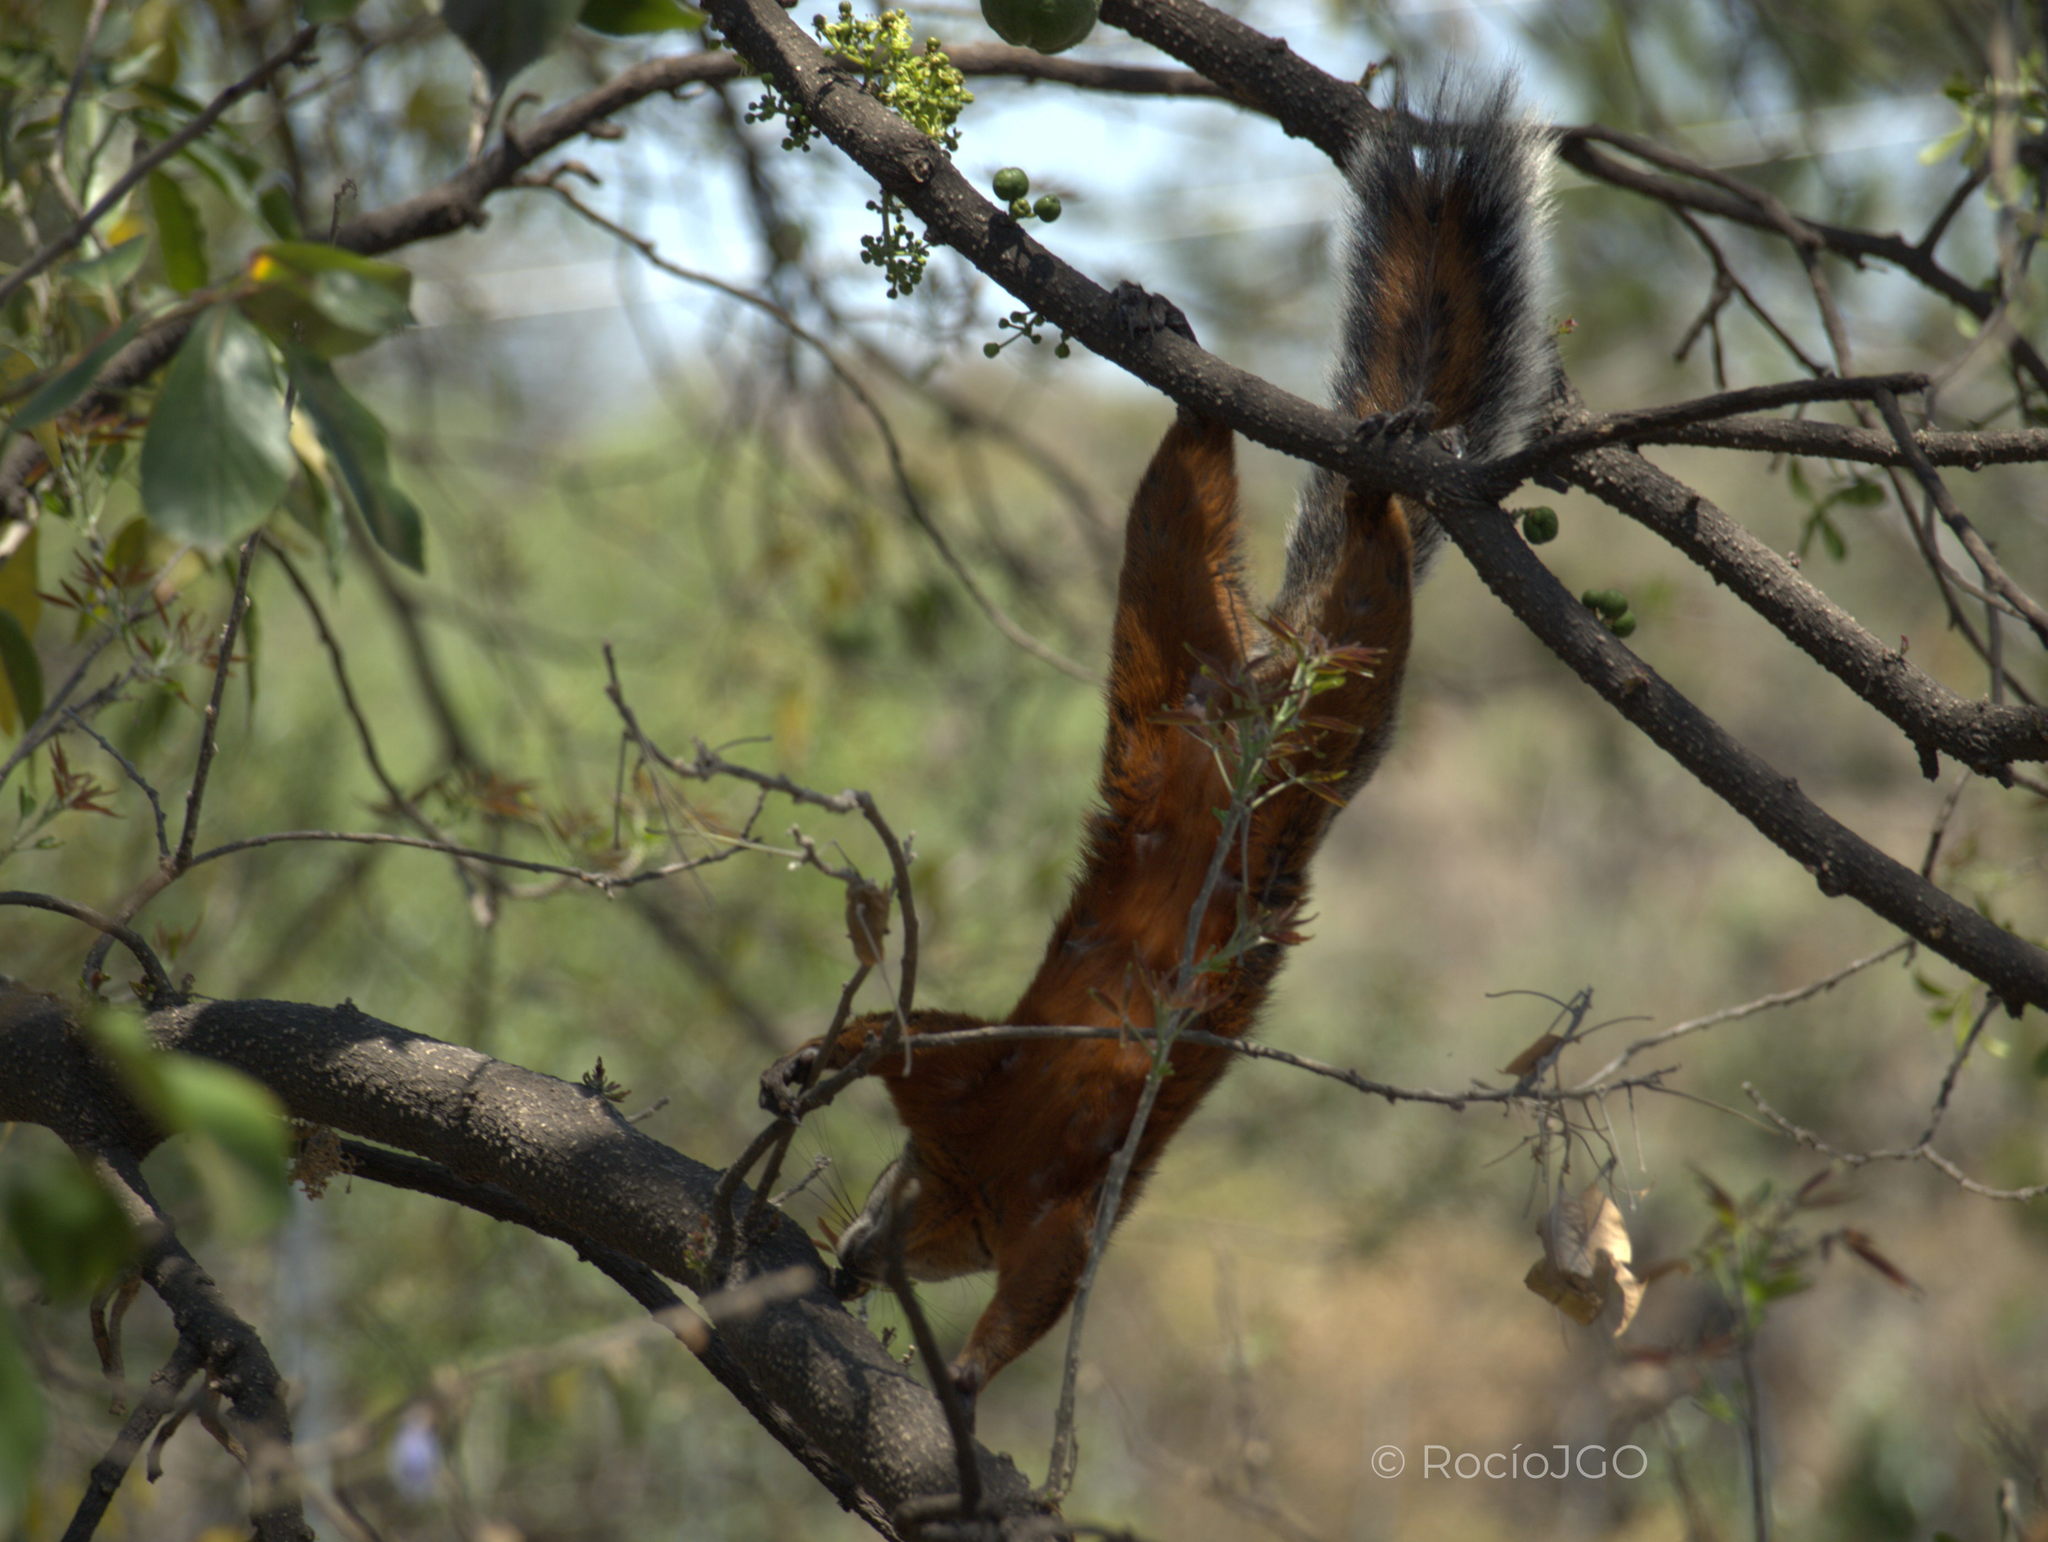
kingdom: Animalia
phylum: Chordata
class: Mammalia
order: Rodentia
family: Sciuridae
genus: Sciurus
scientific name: Sciurus aureogaster
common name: Red-bellied squirrel
